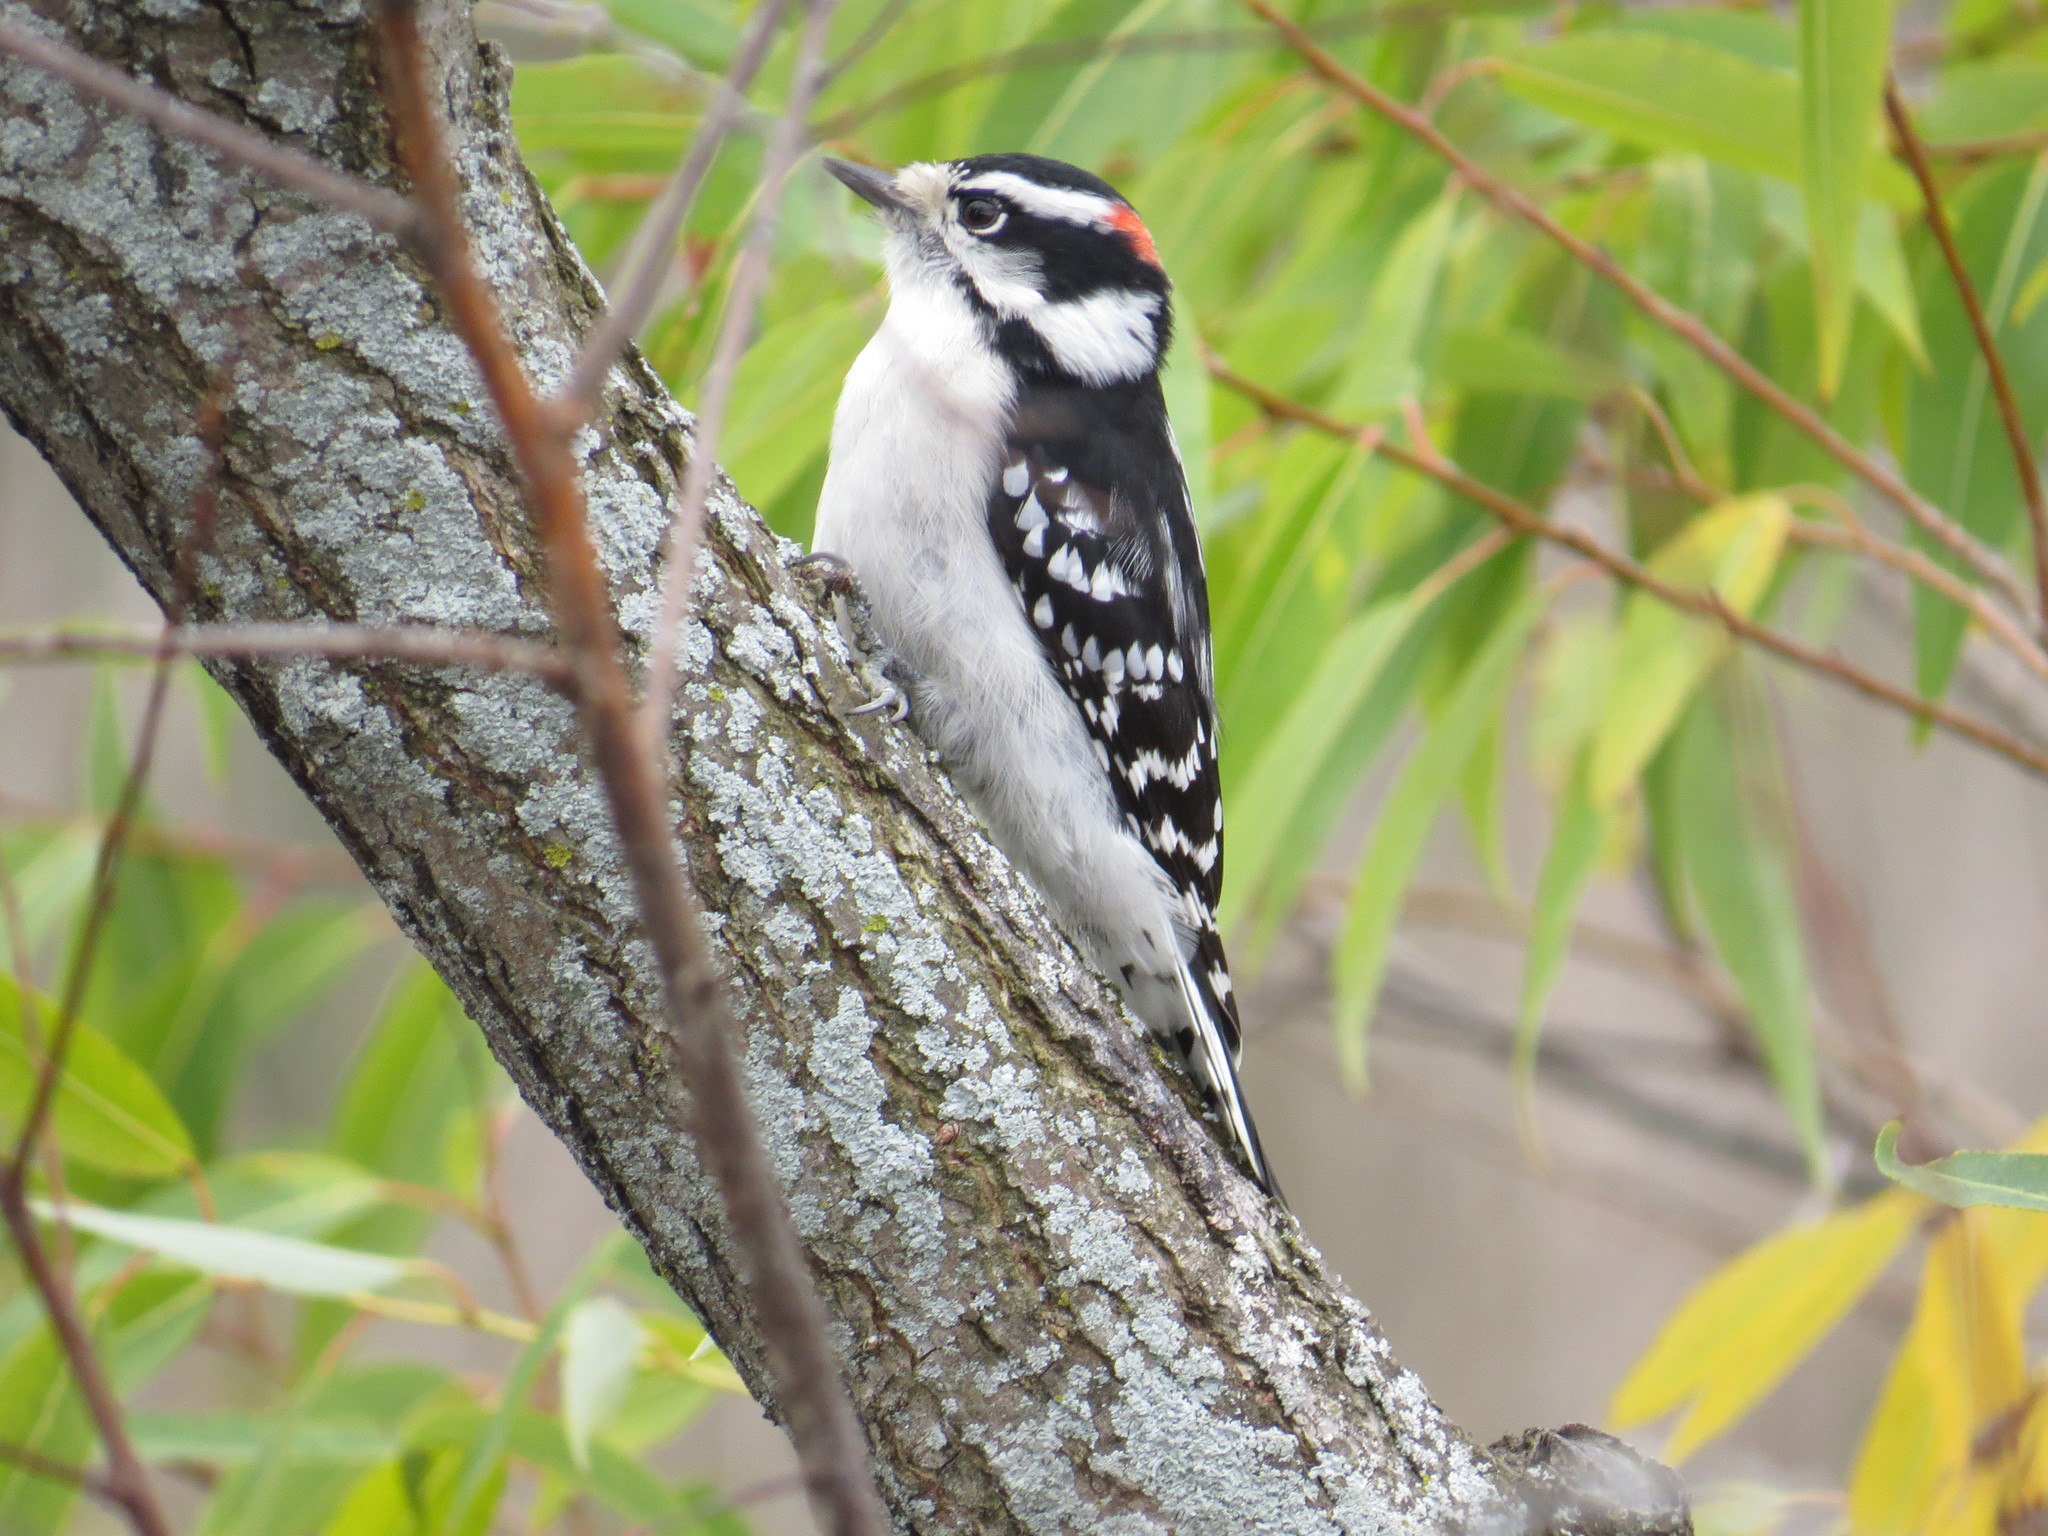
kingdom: Animalia
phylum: Chordata
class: Aves
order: Piciformes
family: Picidae
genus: Dryobates
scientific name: Dryobates pubescens
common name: Downy woodpecker
